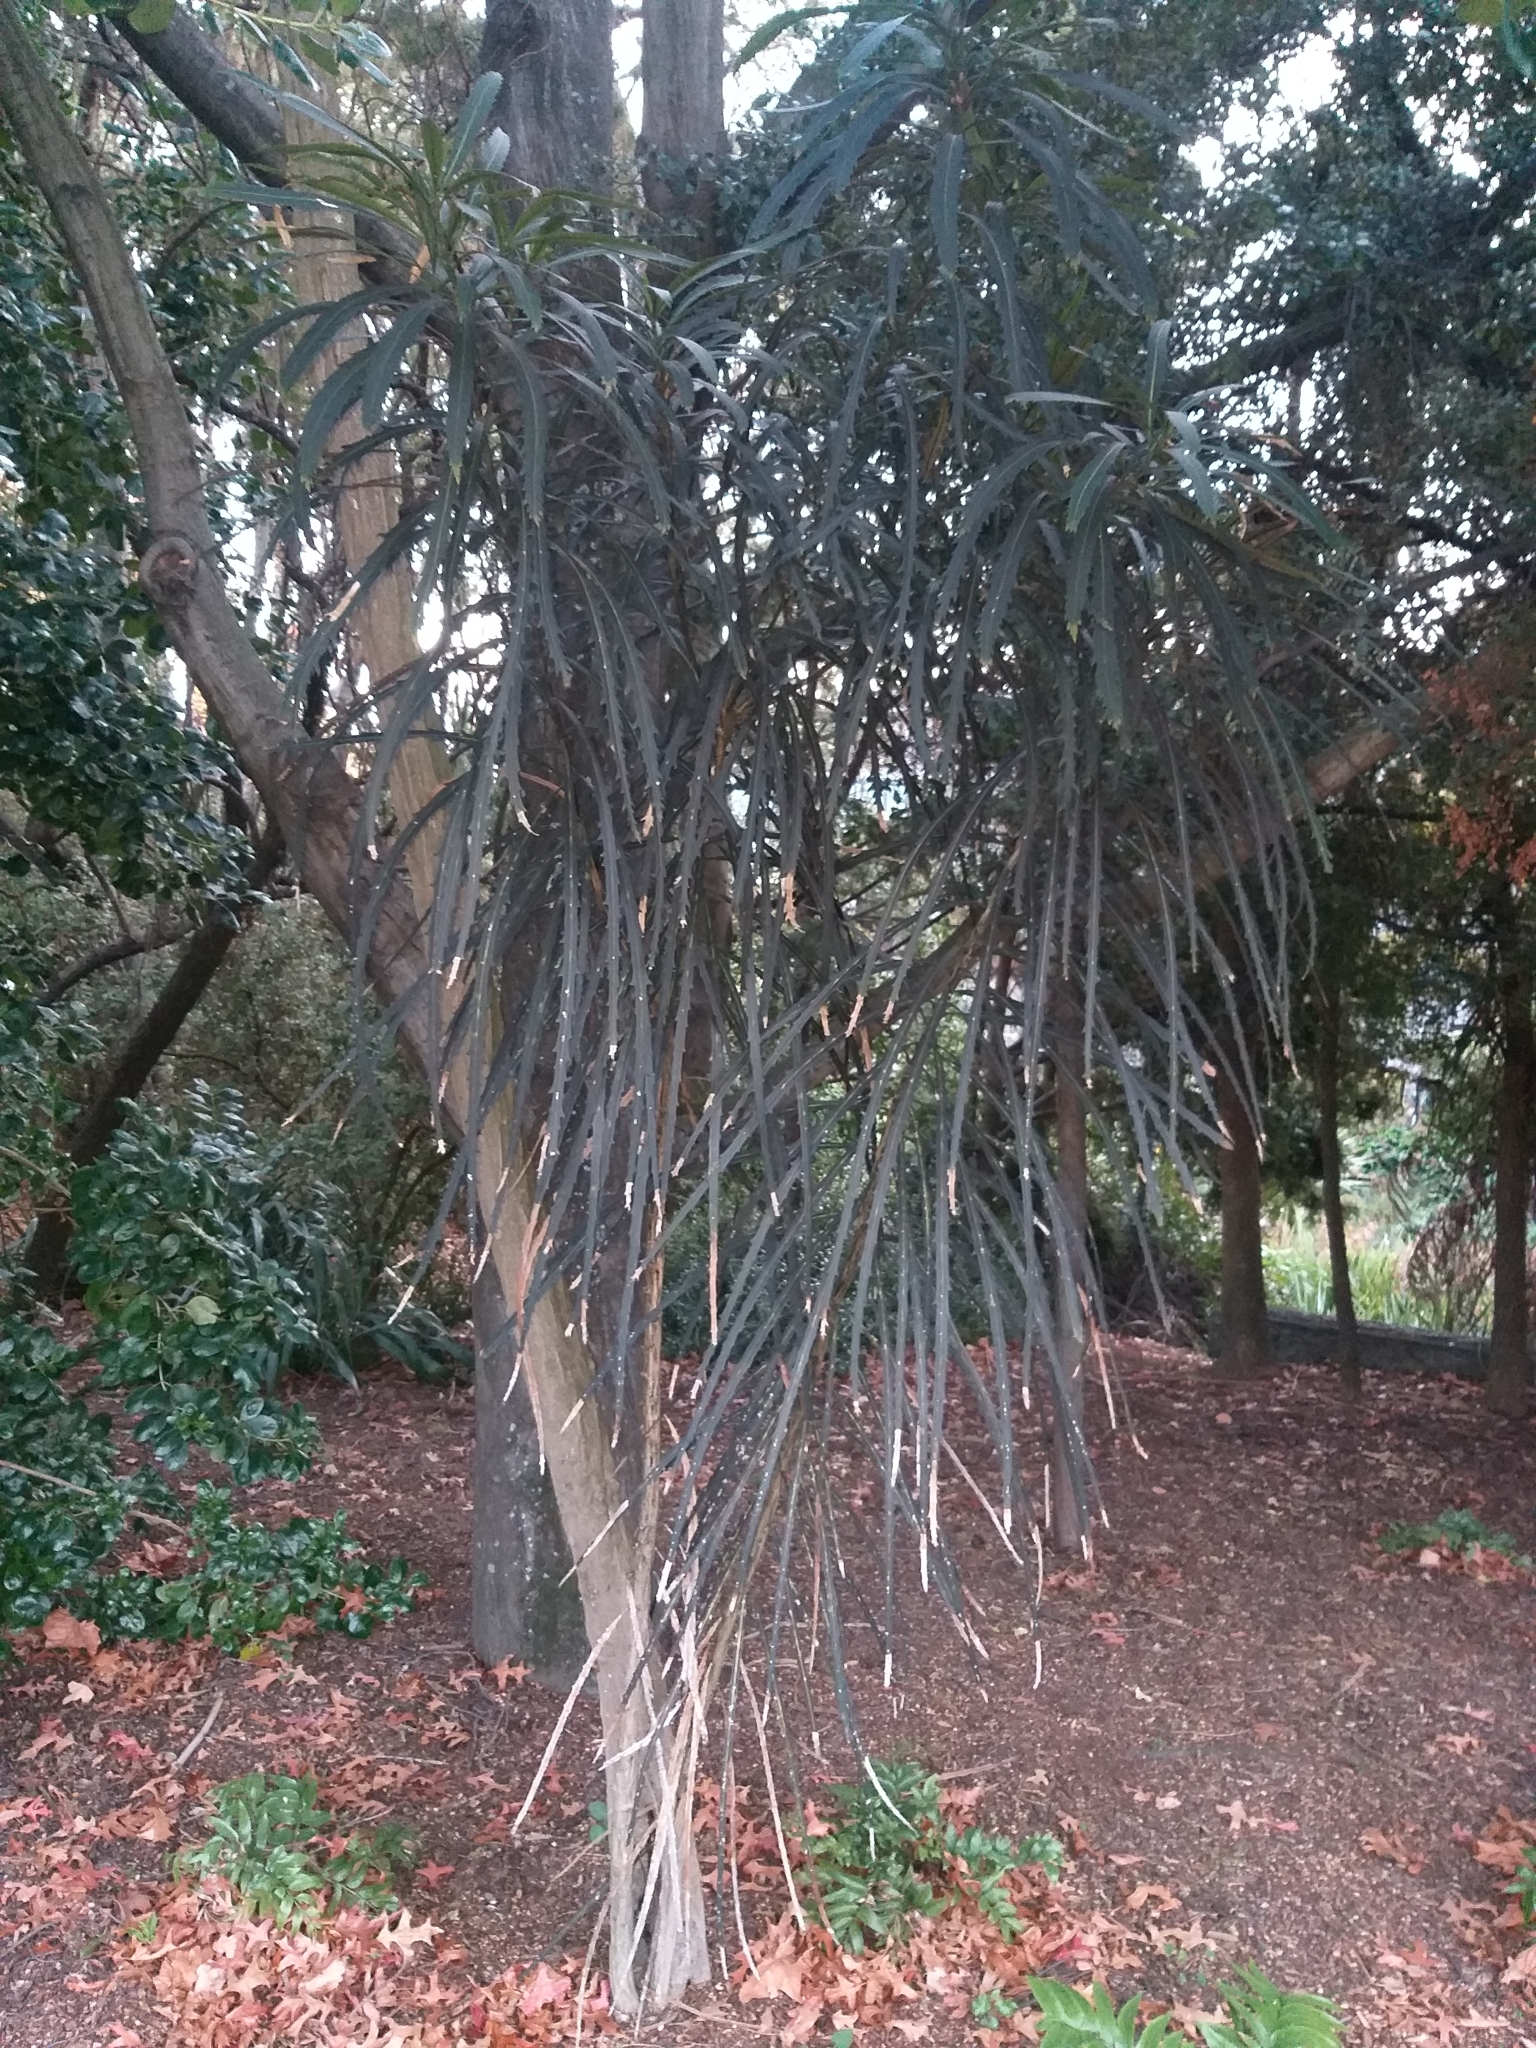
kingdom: Plantae
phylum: Tracheophyta
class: Magnoliopsida
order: Apiales
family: Araliaceae
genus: Pseudopanax
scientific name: Pseudopanax crassifolius
